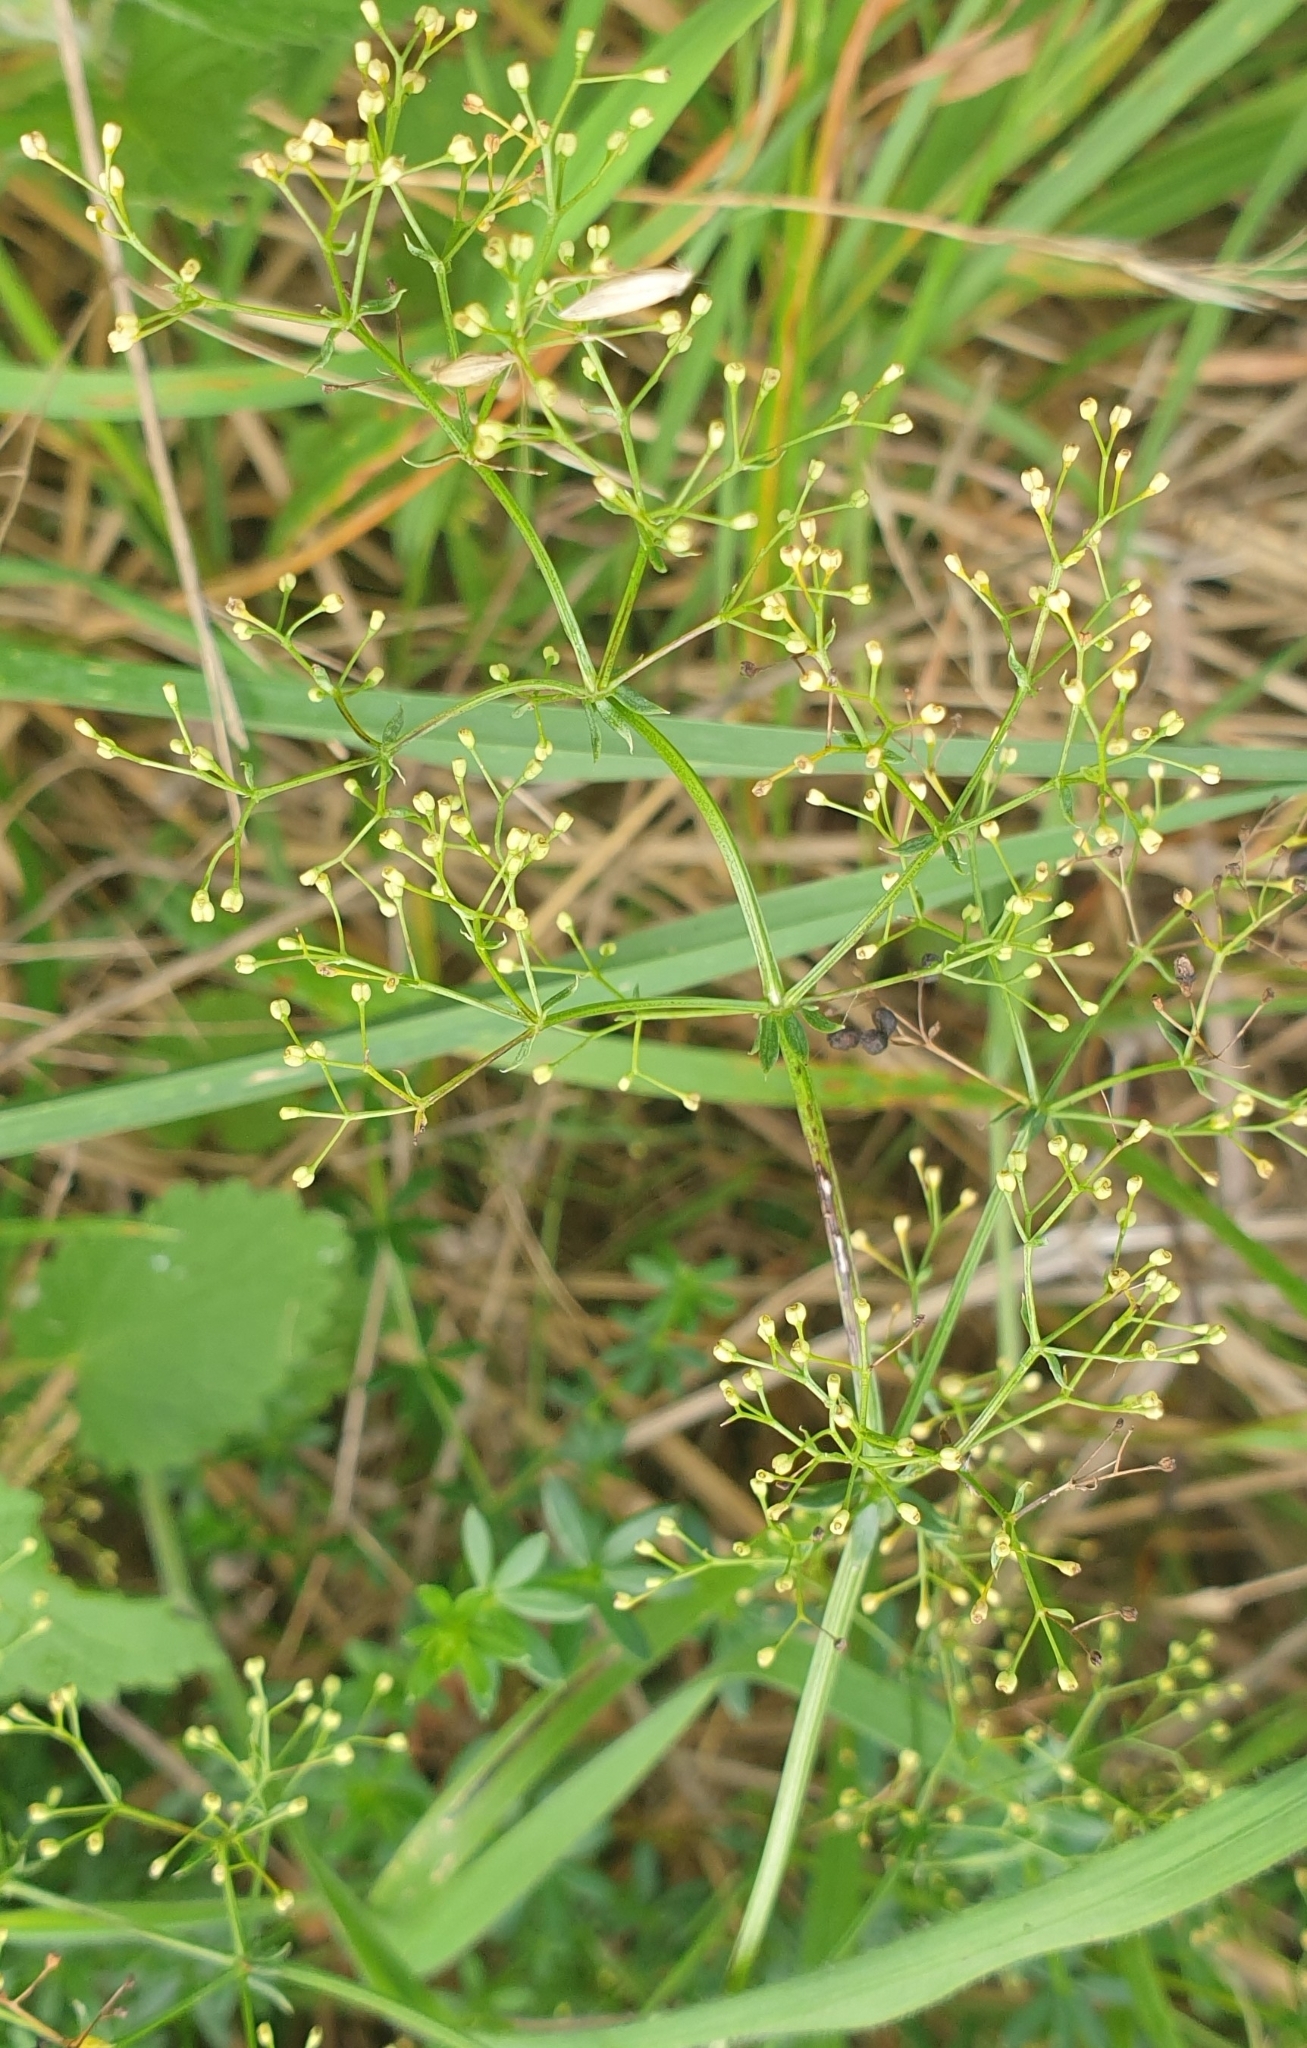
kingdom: Plantae
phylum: Tracheophyta
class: Magnoliopsida
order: Gentianales
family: Rubiaceae
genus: Galium
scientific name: Galium mollugo
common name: Hedge bedstraw
